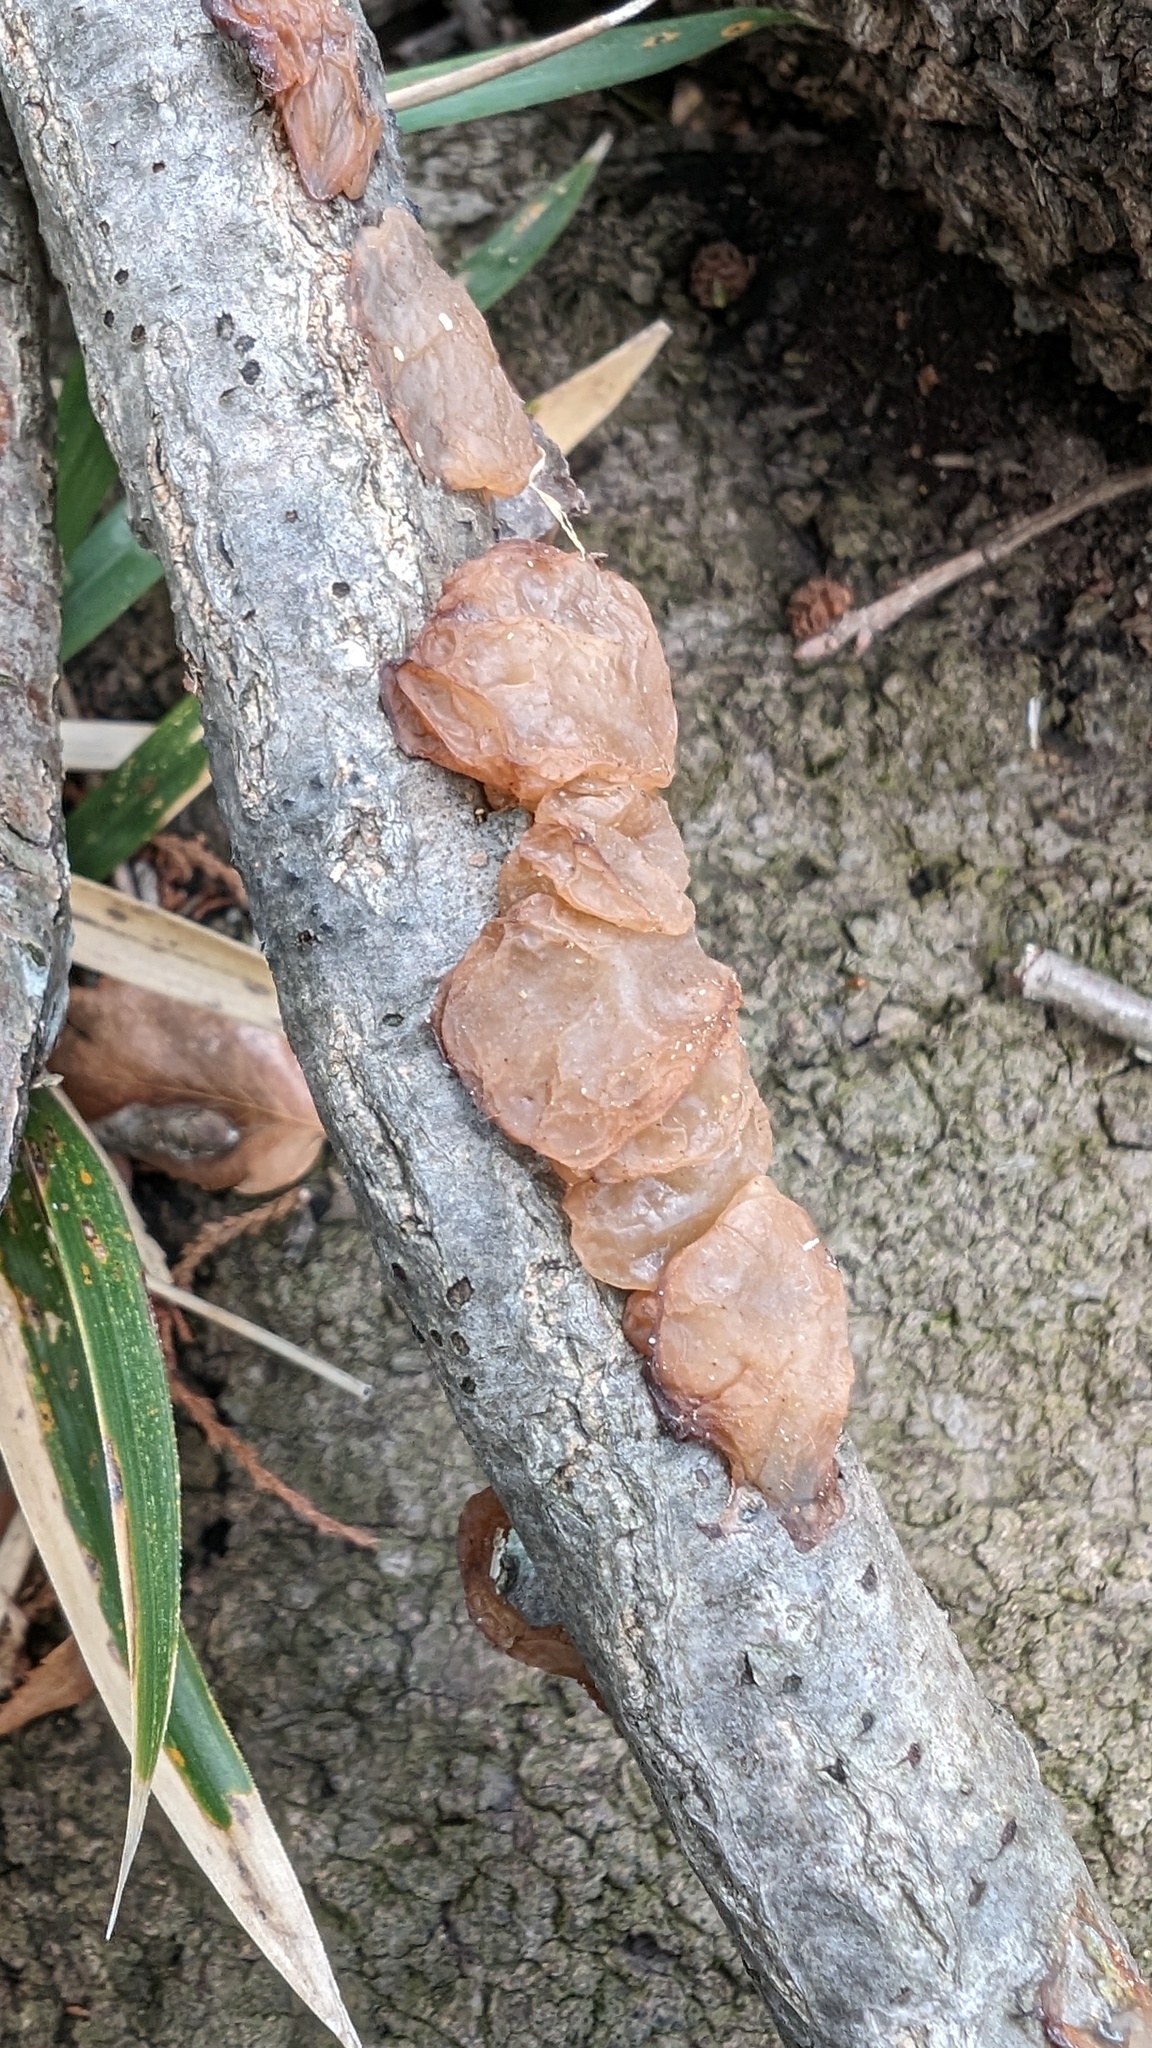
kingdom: Fungi
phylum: Basidiomycota
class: Agaricomycetes
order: Auriculariales
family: Auriculariaceae
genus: Exidia
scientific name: Exidia uvapassa
